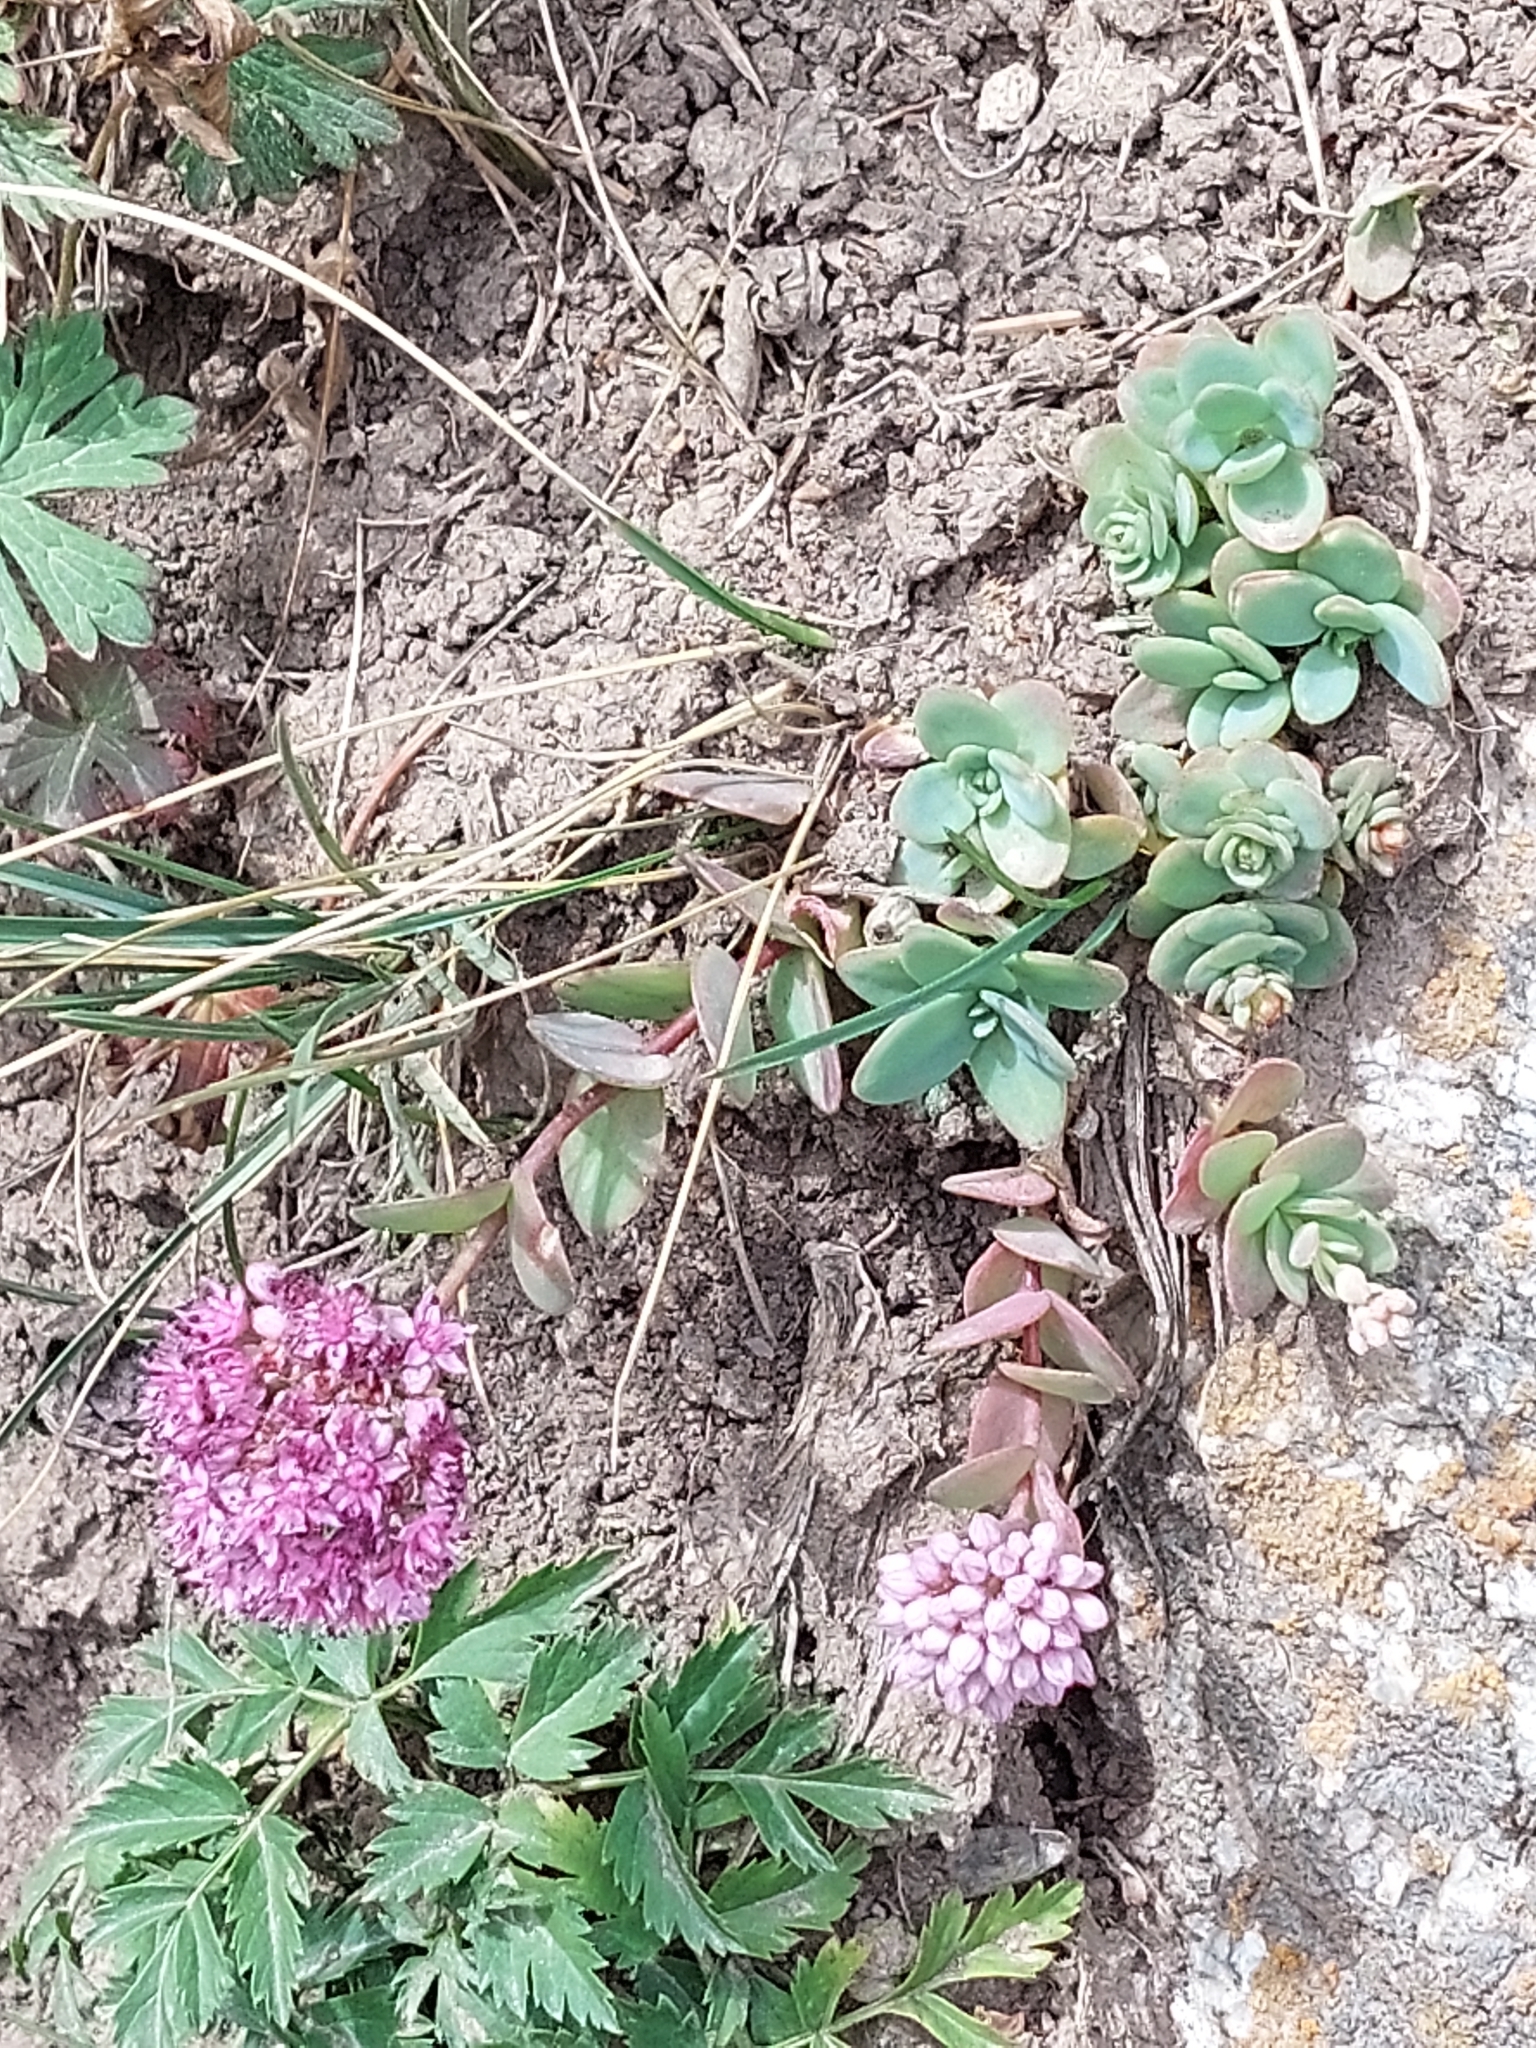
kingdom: Plantae
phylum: Tracheophyta
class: Magnoliopsida
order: Saxifragales
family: Crassulaceae
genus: Hylotelephium
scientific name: Hylotelephium ewersii
